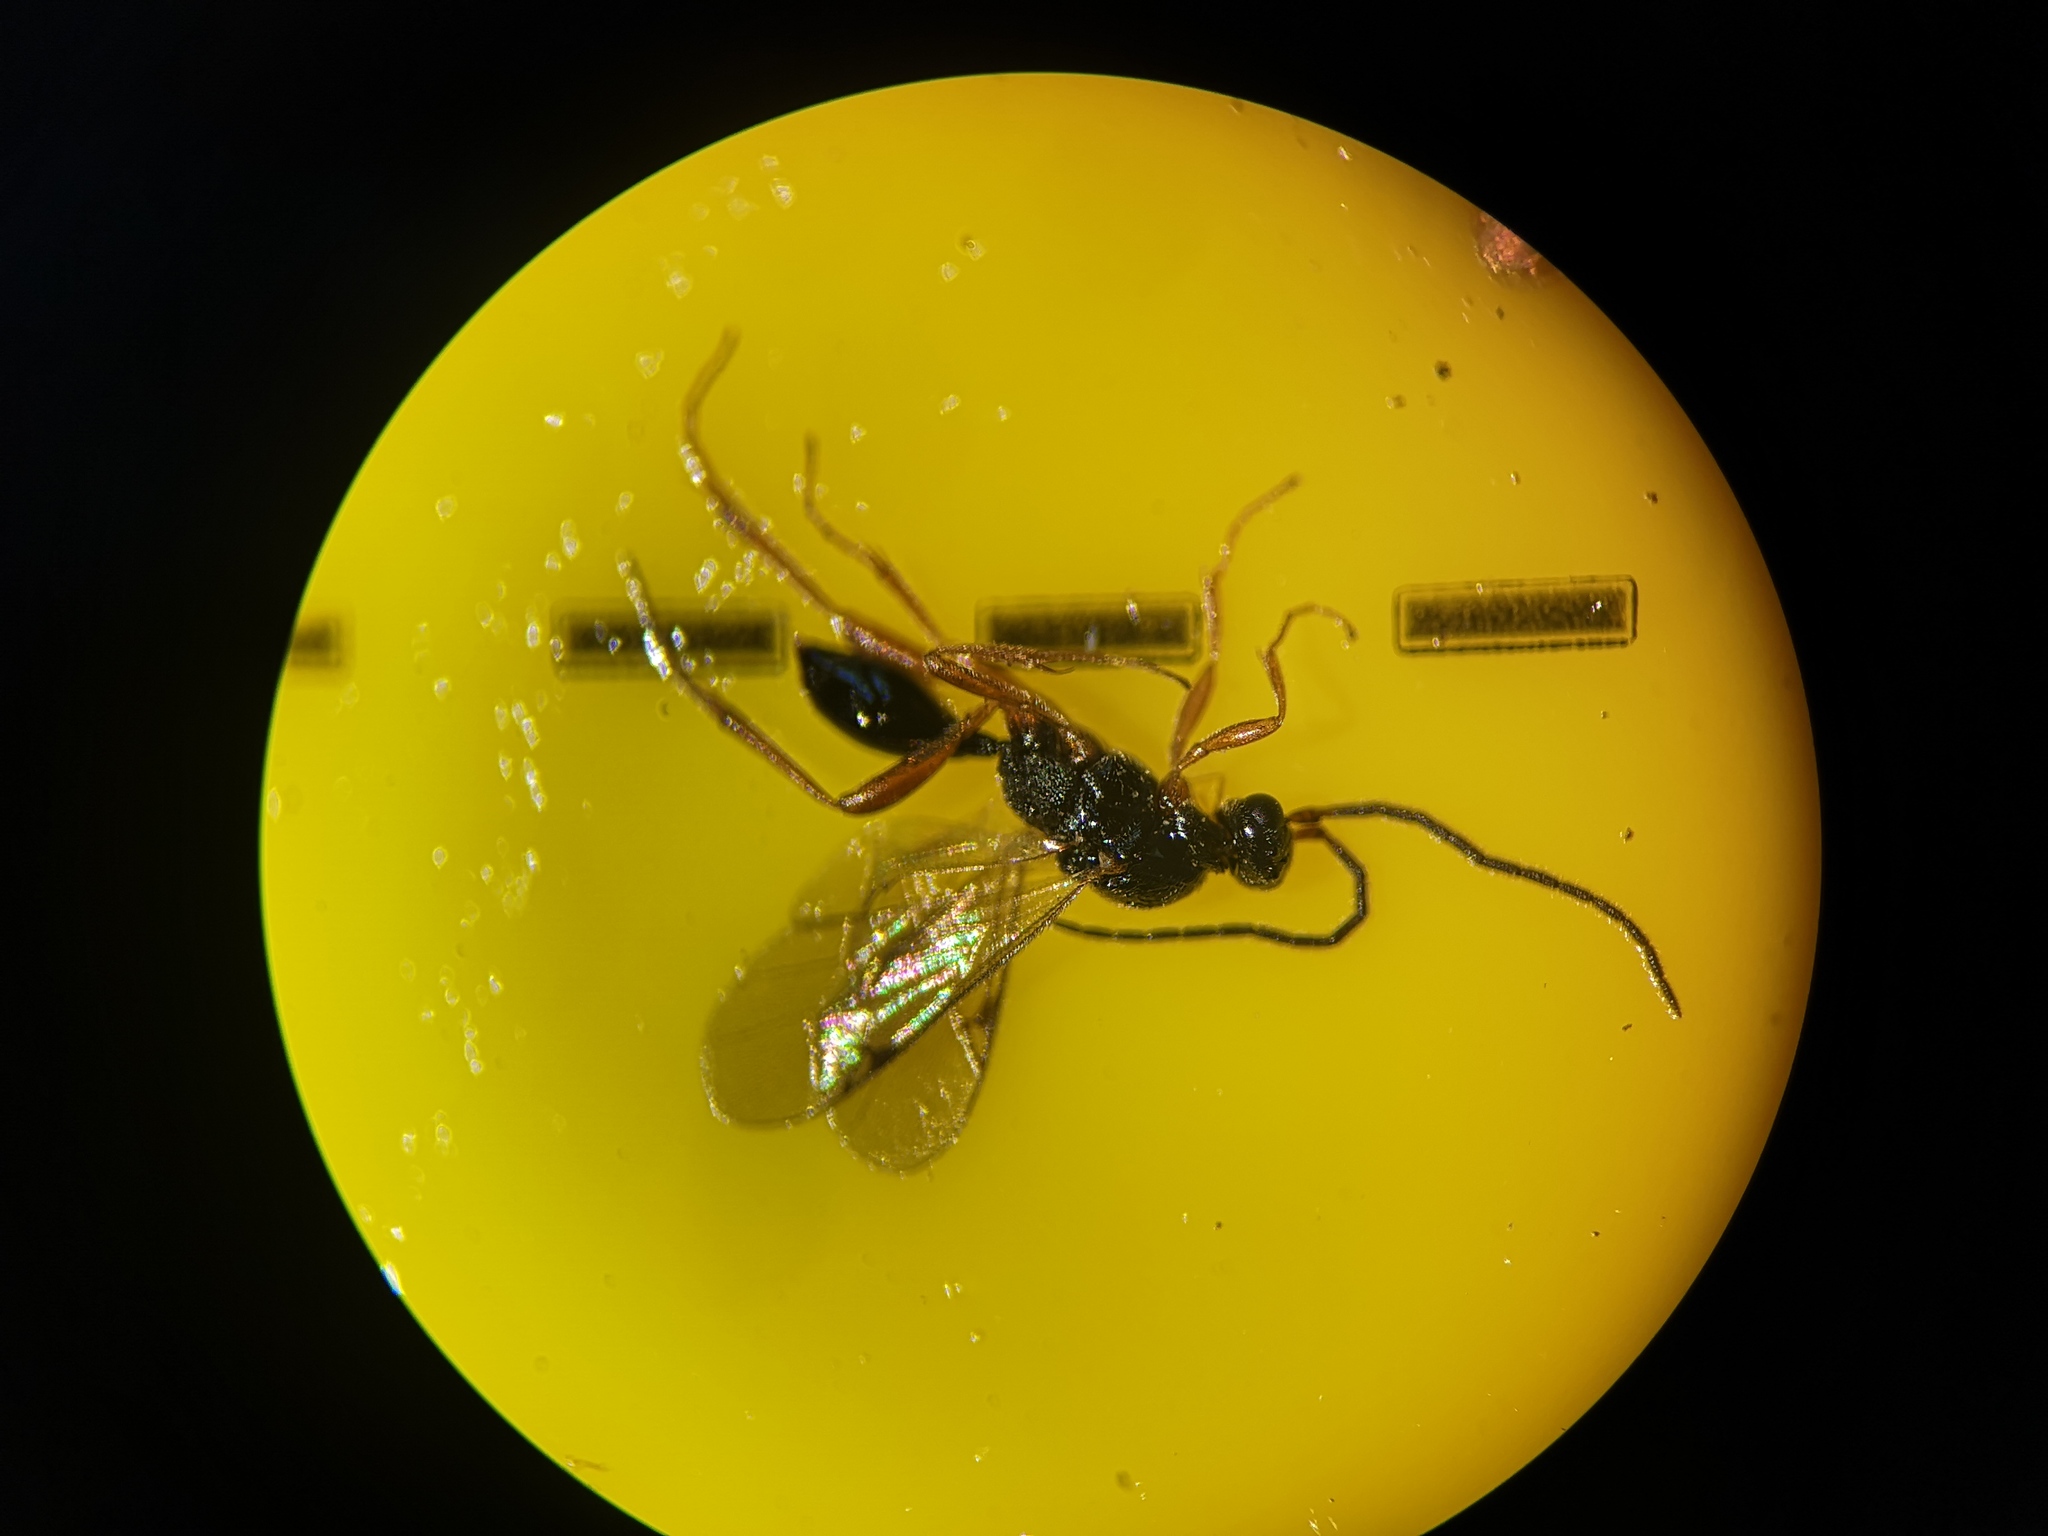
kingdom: Animalia
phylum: Arthropoda
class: Insecta
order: Hymenoptera
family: Proctotrupidae
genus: Phaneroserphus
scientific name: Phaneroserphus calcar
